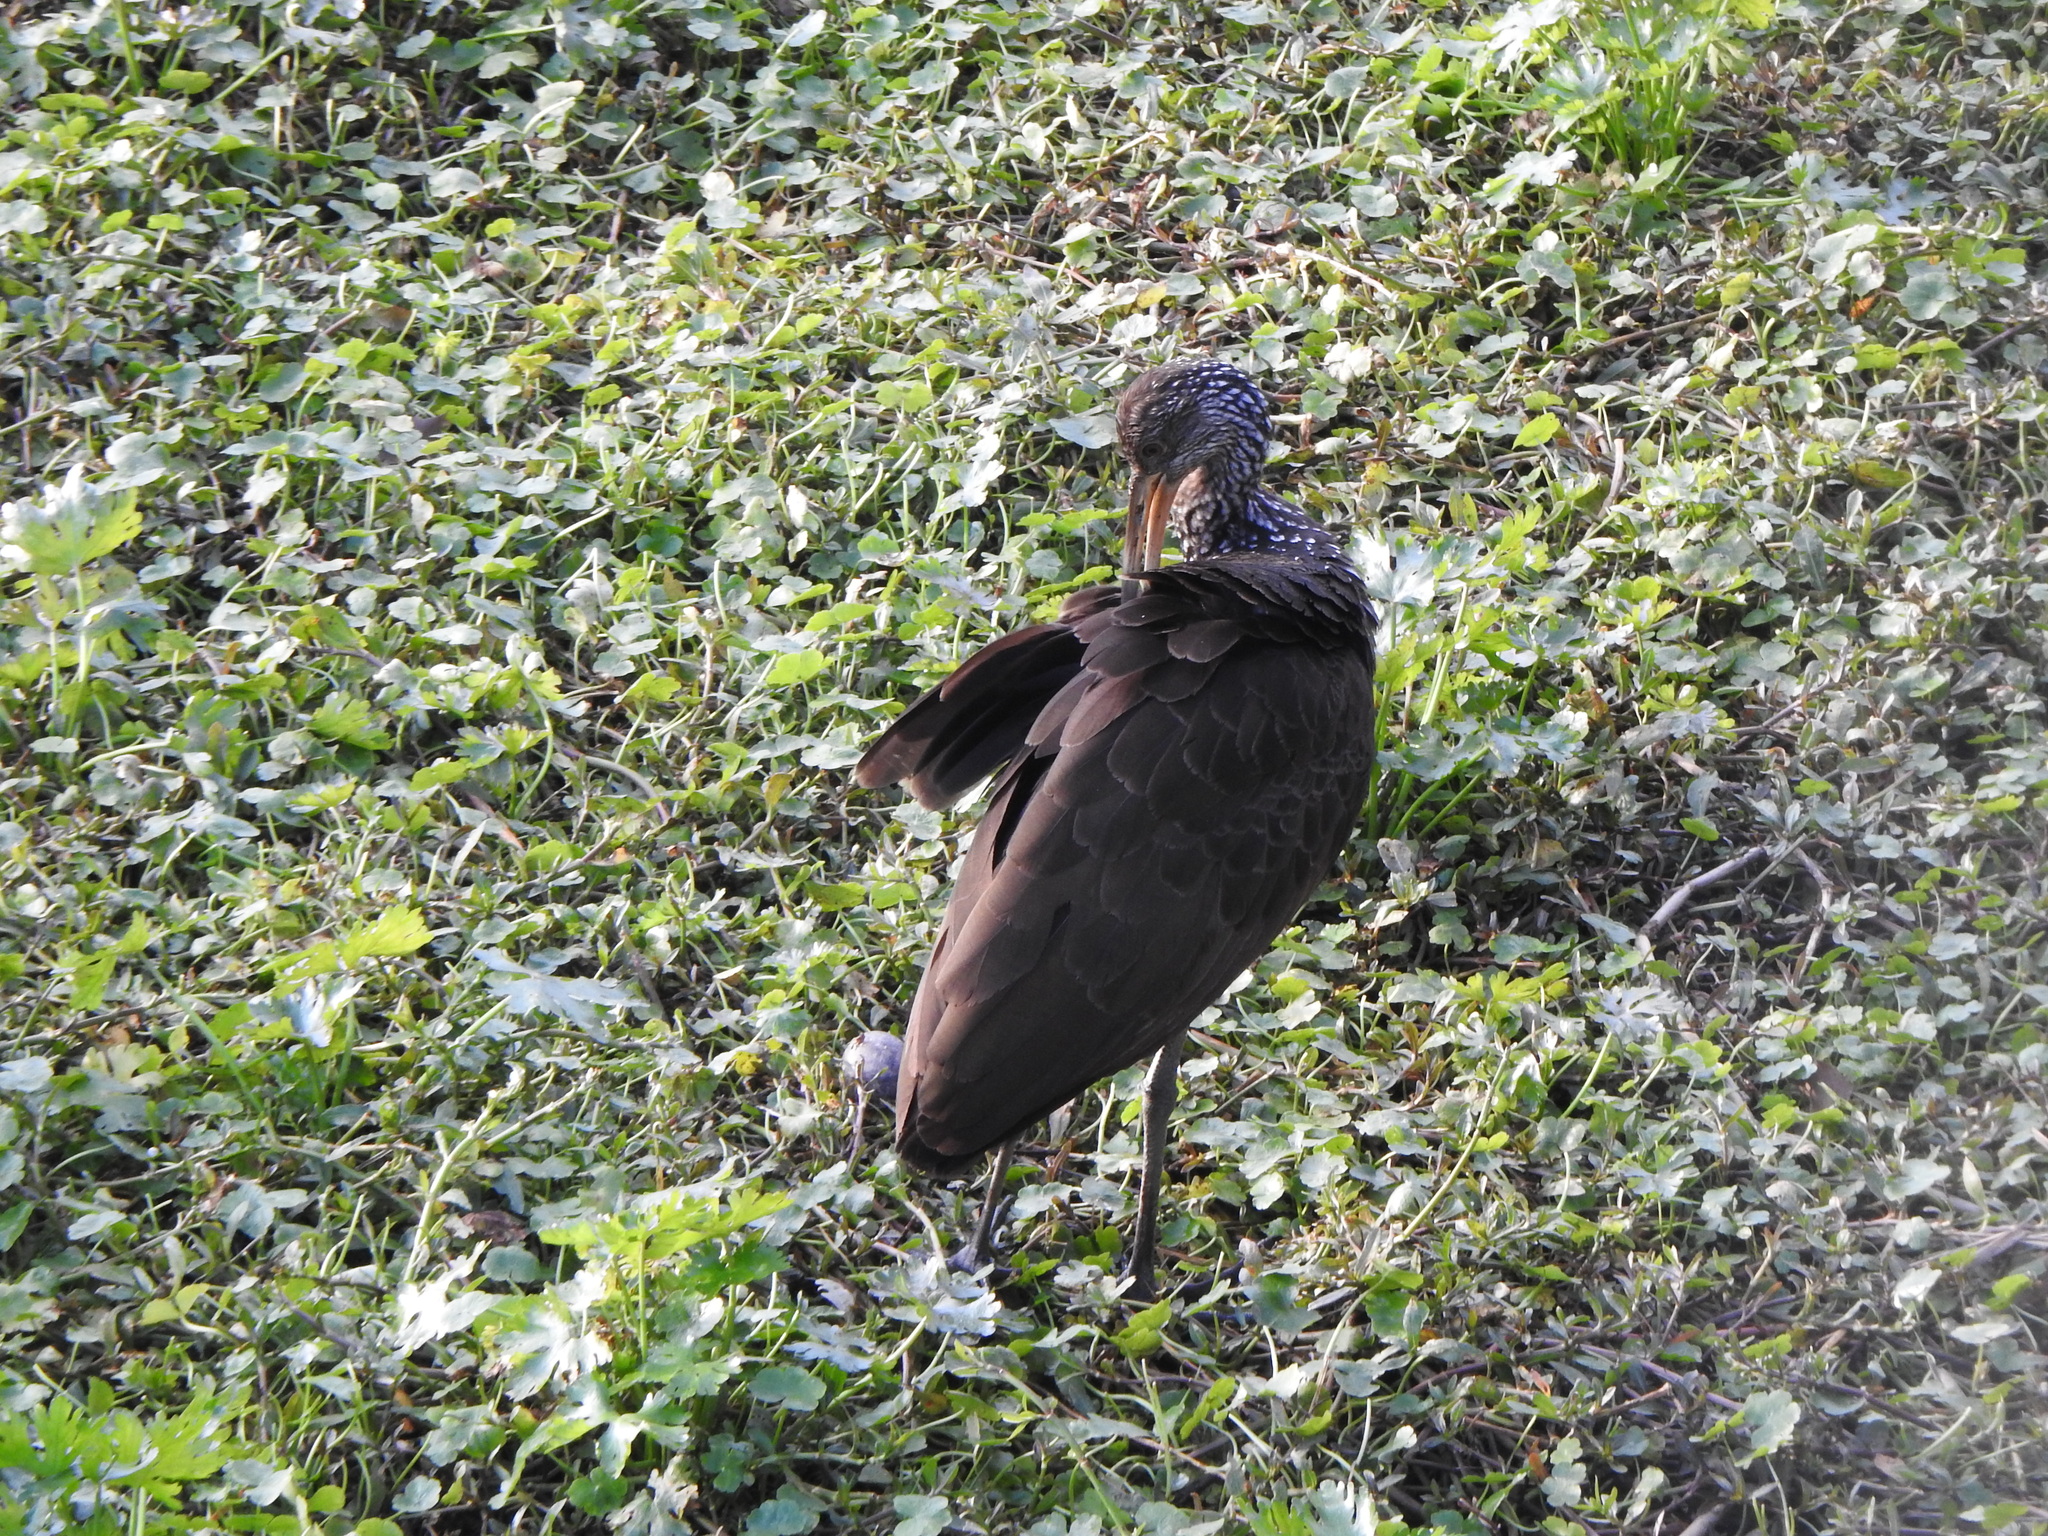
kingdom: Animalia
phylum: Chordata
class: Aves
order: Gruiformes
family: Aramidae
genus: Aramus
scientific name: Aramus guarauna
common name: Limpkin
